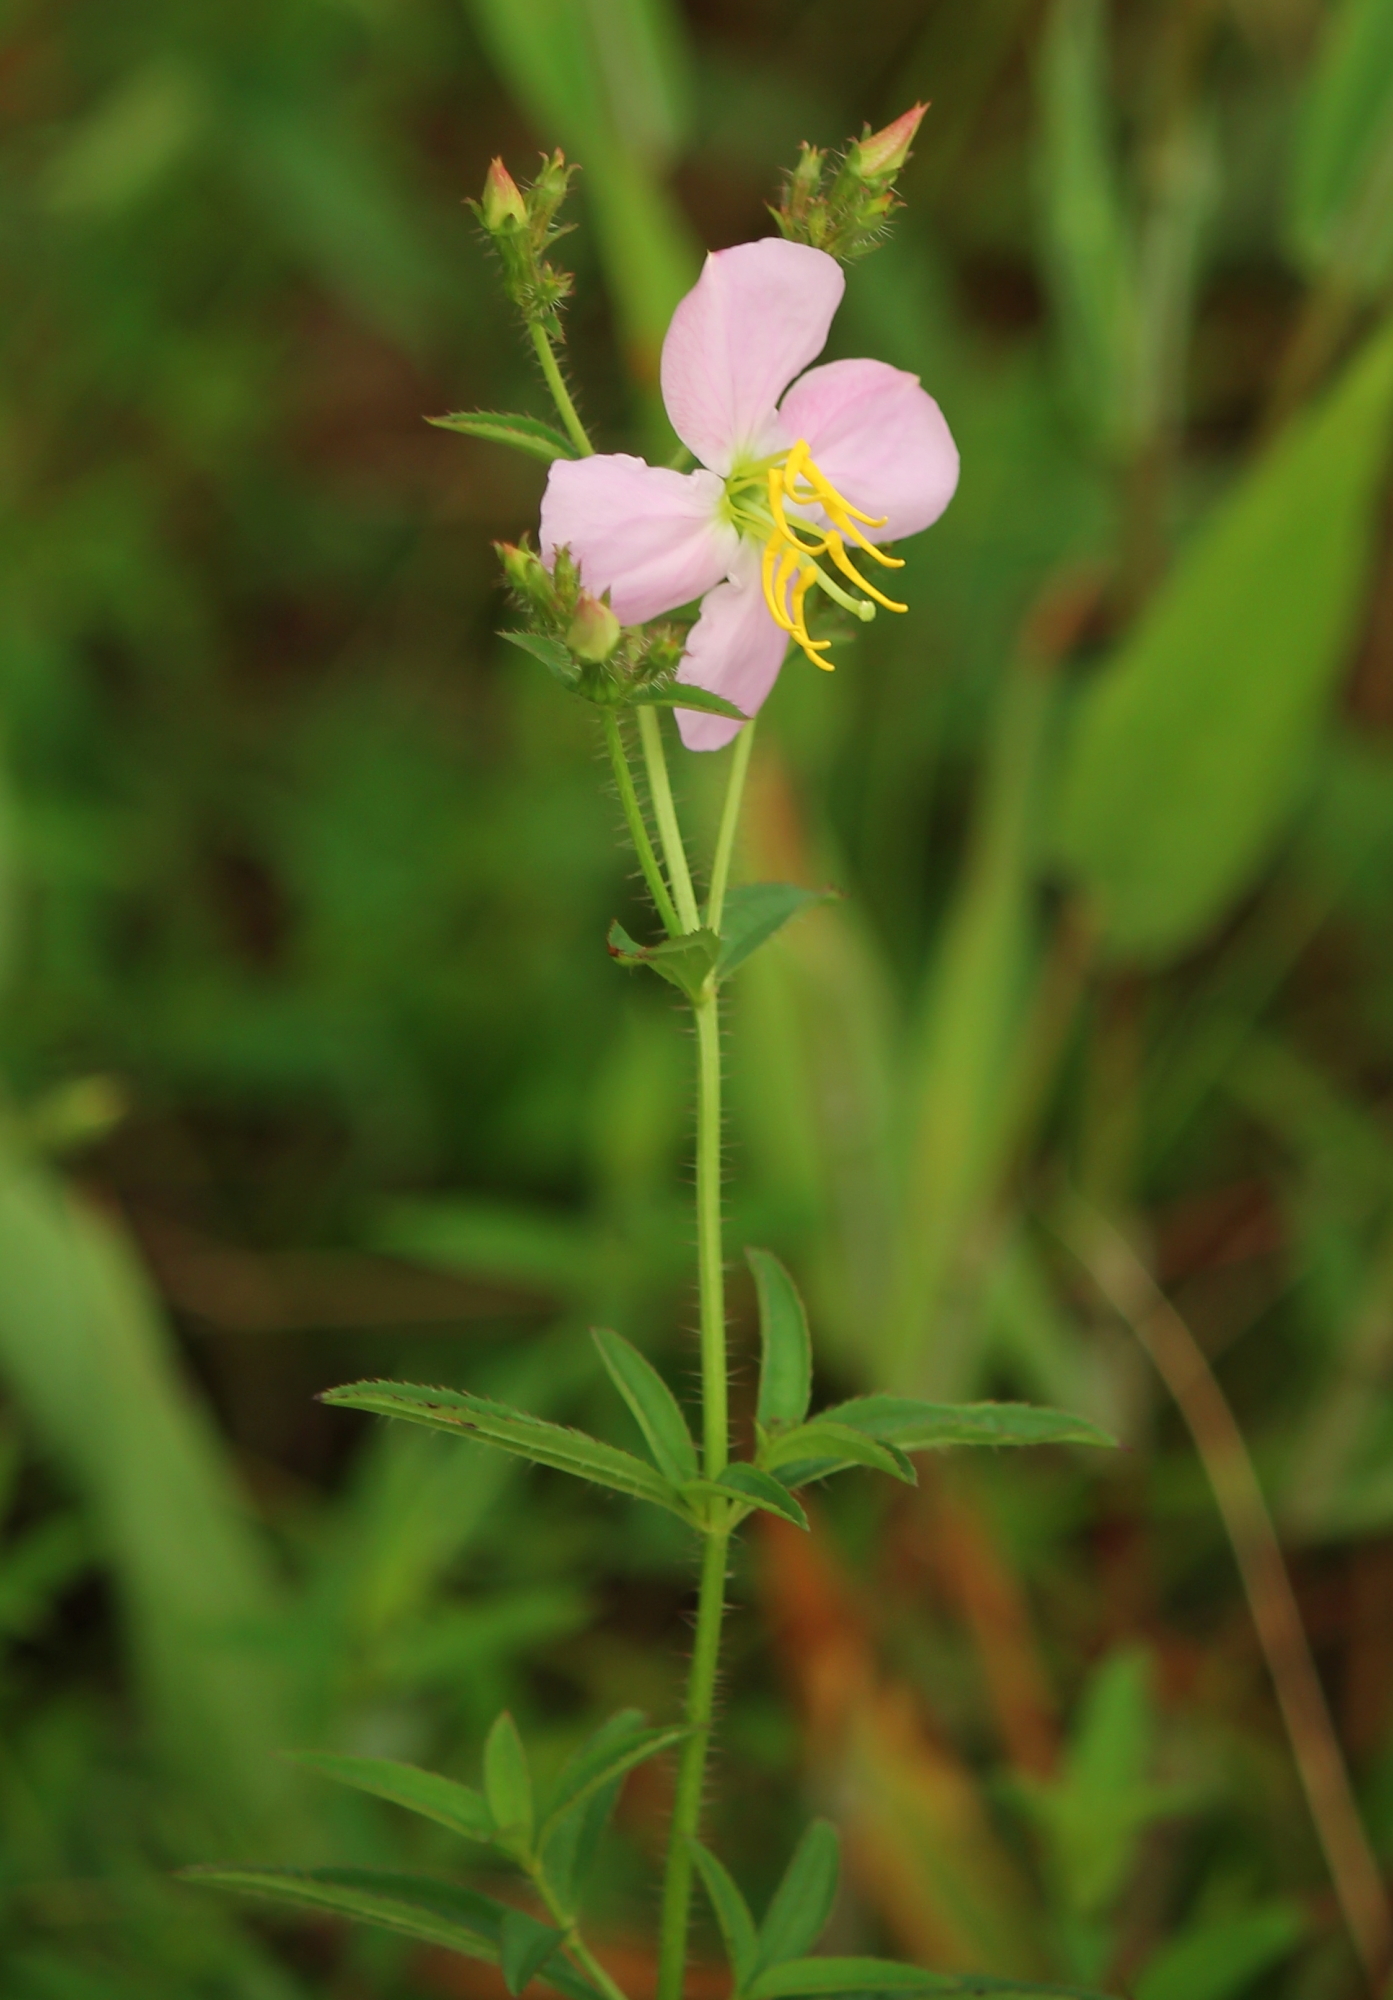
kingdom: Plantae
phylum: Tracheophyta
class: Magnoliopsida
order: Myrtales
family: Melastomataceae
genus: Rhexia
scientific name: Rhexia mariana
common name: Dull meadow-pitcher
